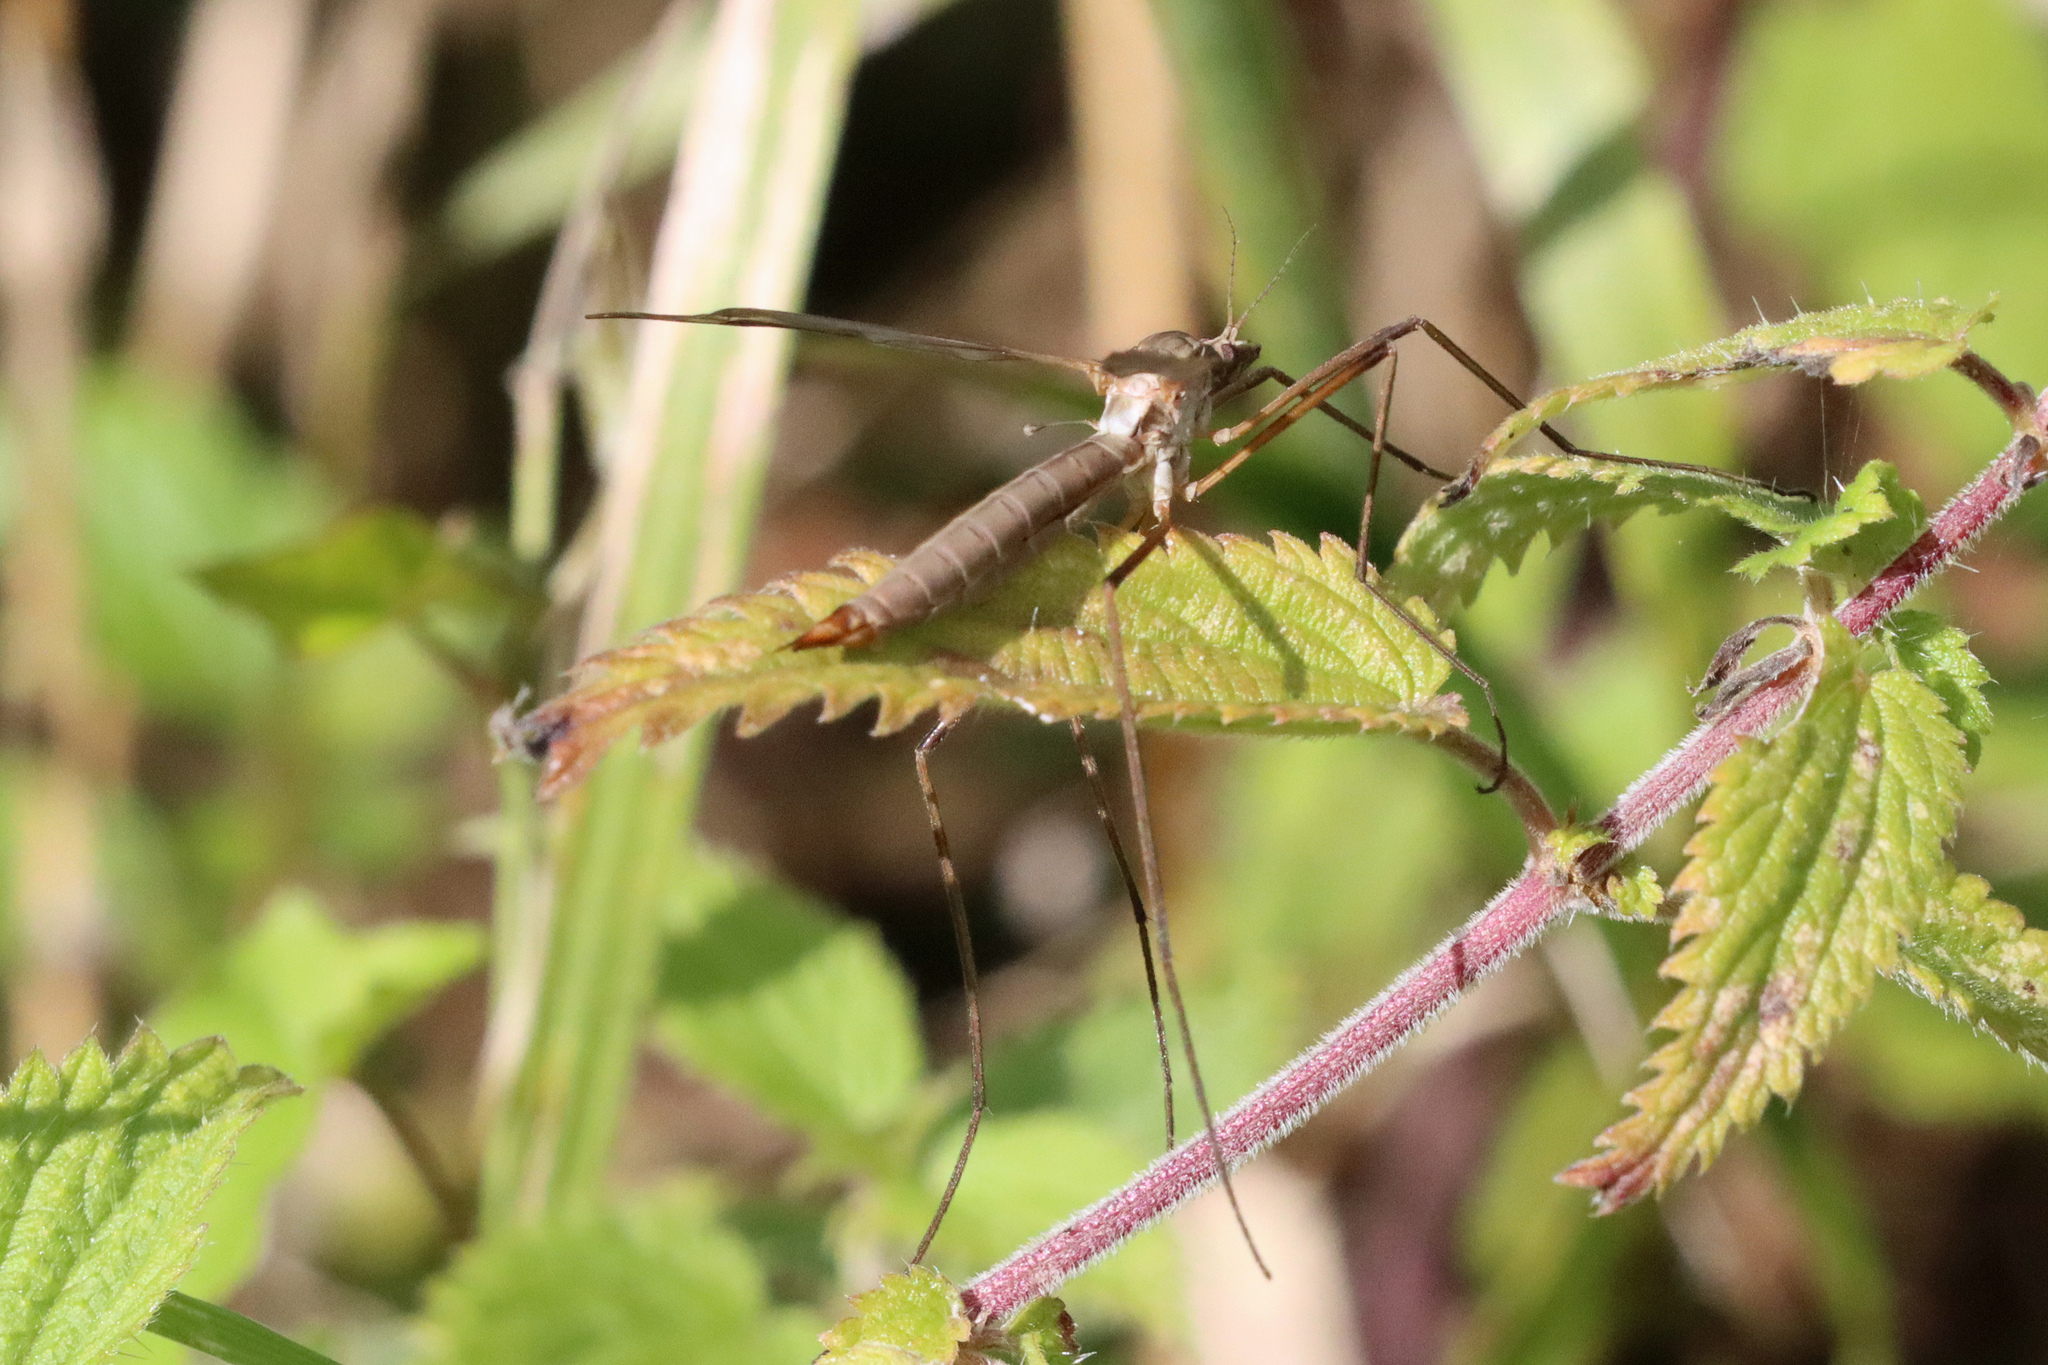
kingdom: Animalia
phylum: Arthropoda
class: Insecta
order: Diptera
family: Tipulidae
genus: Tipula
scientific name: Tipula paludosa
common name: European cranefly
